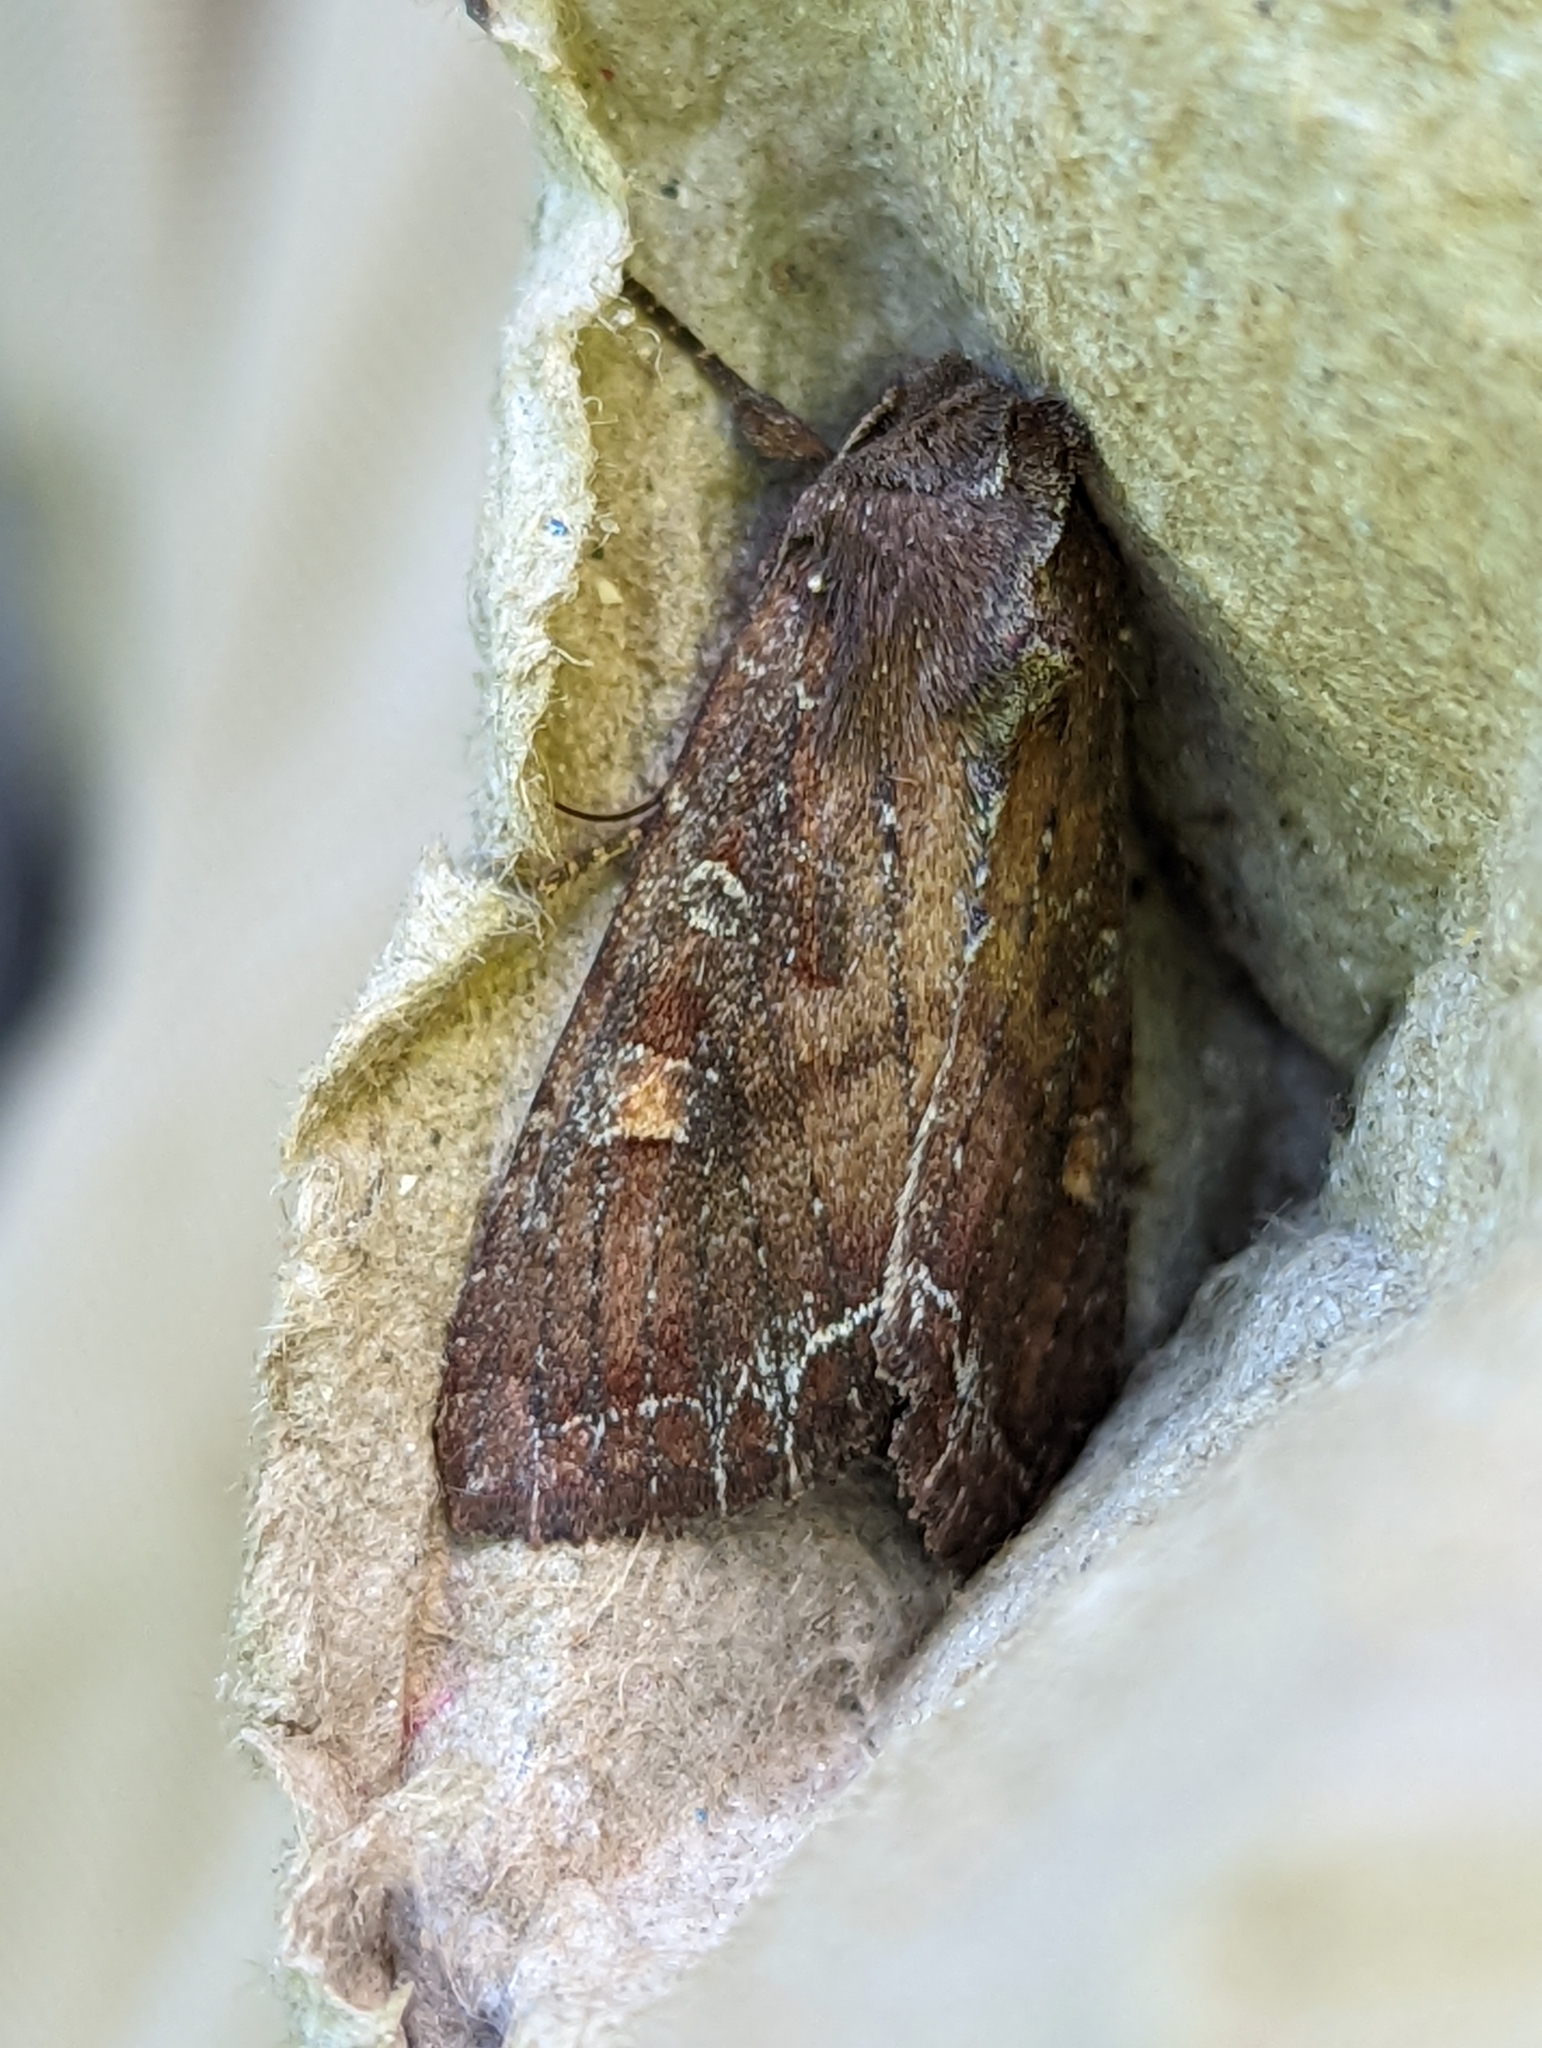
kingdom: Animalia
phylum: Arthropoda
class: Insecta
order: Lepidoptera
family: Noctuidae
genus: Lacanobia
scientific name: Lacanobia oleracea
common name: Bright-line brown-eye
